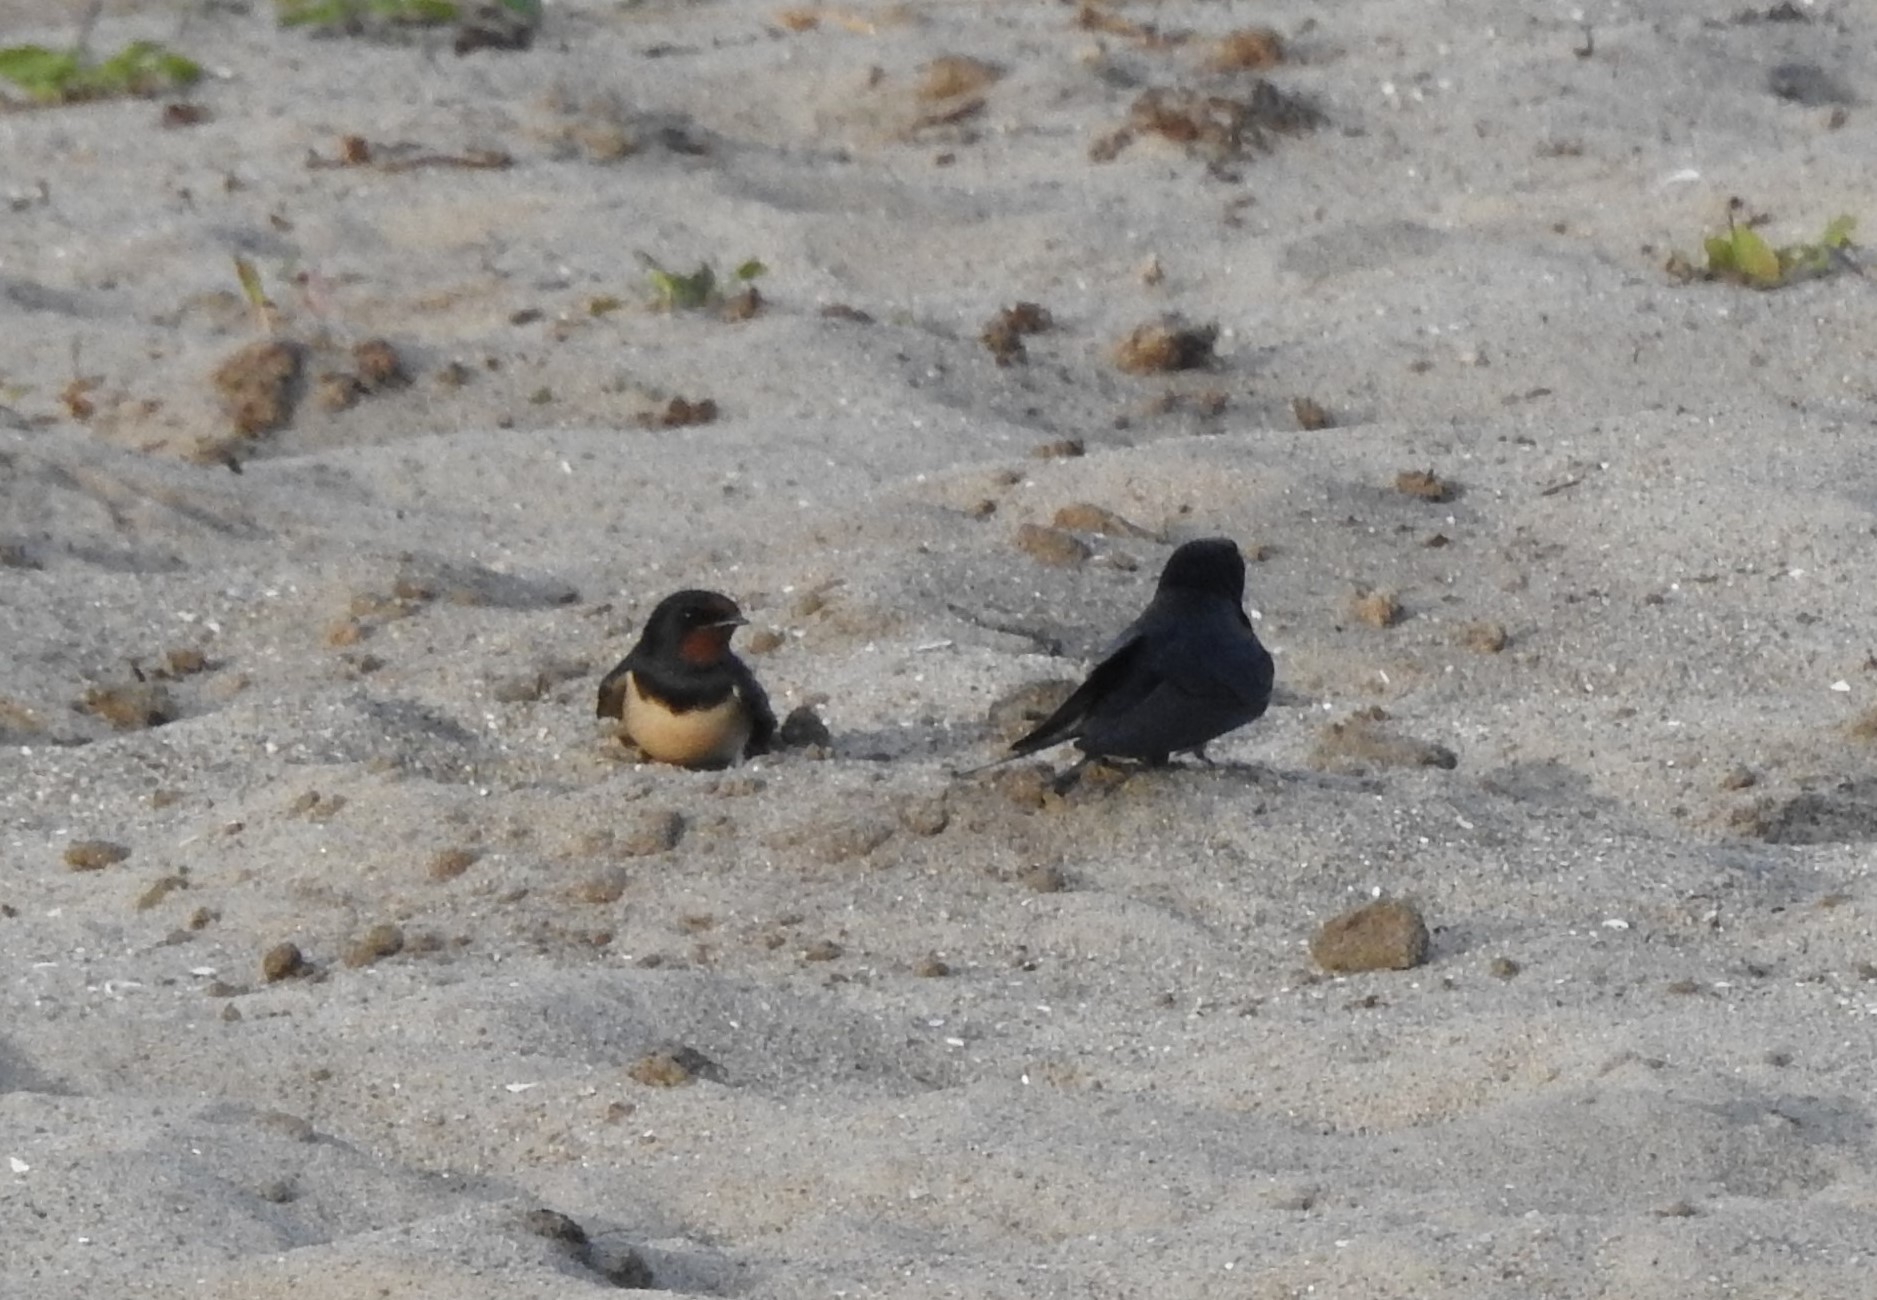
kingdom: Animalia
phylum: Chordata
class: Aves
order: Passeriformes
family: Hirundinidae
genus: Hirundo
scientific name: Hirundo rustica
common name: Barn swallow
